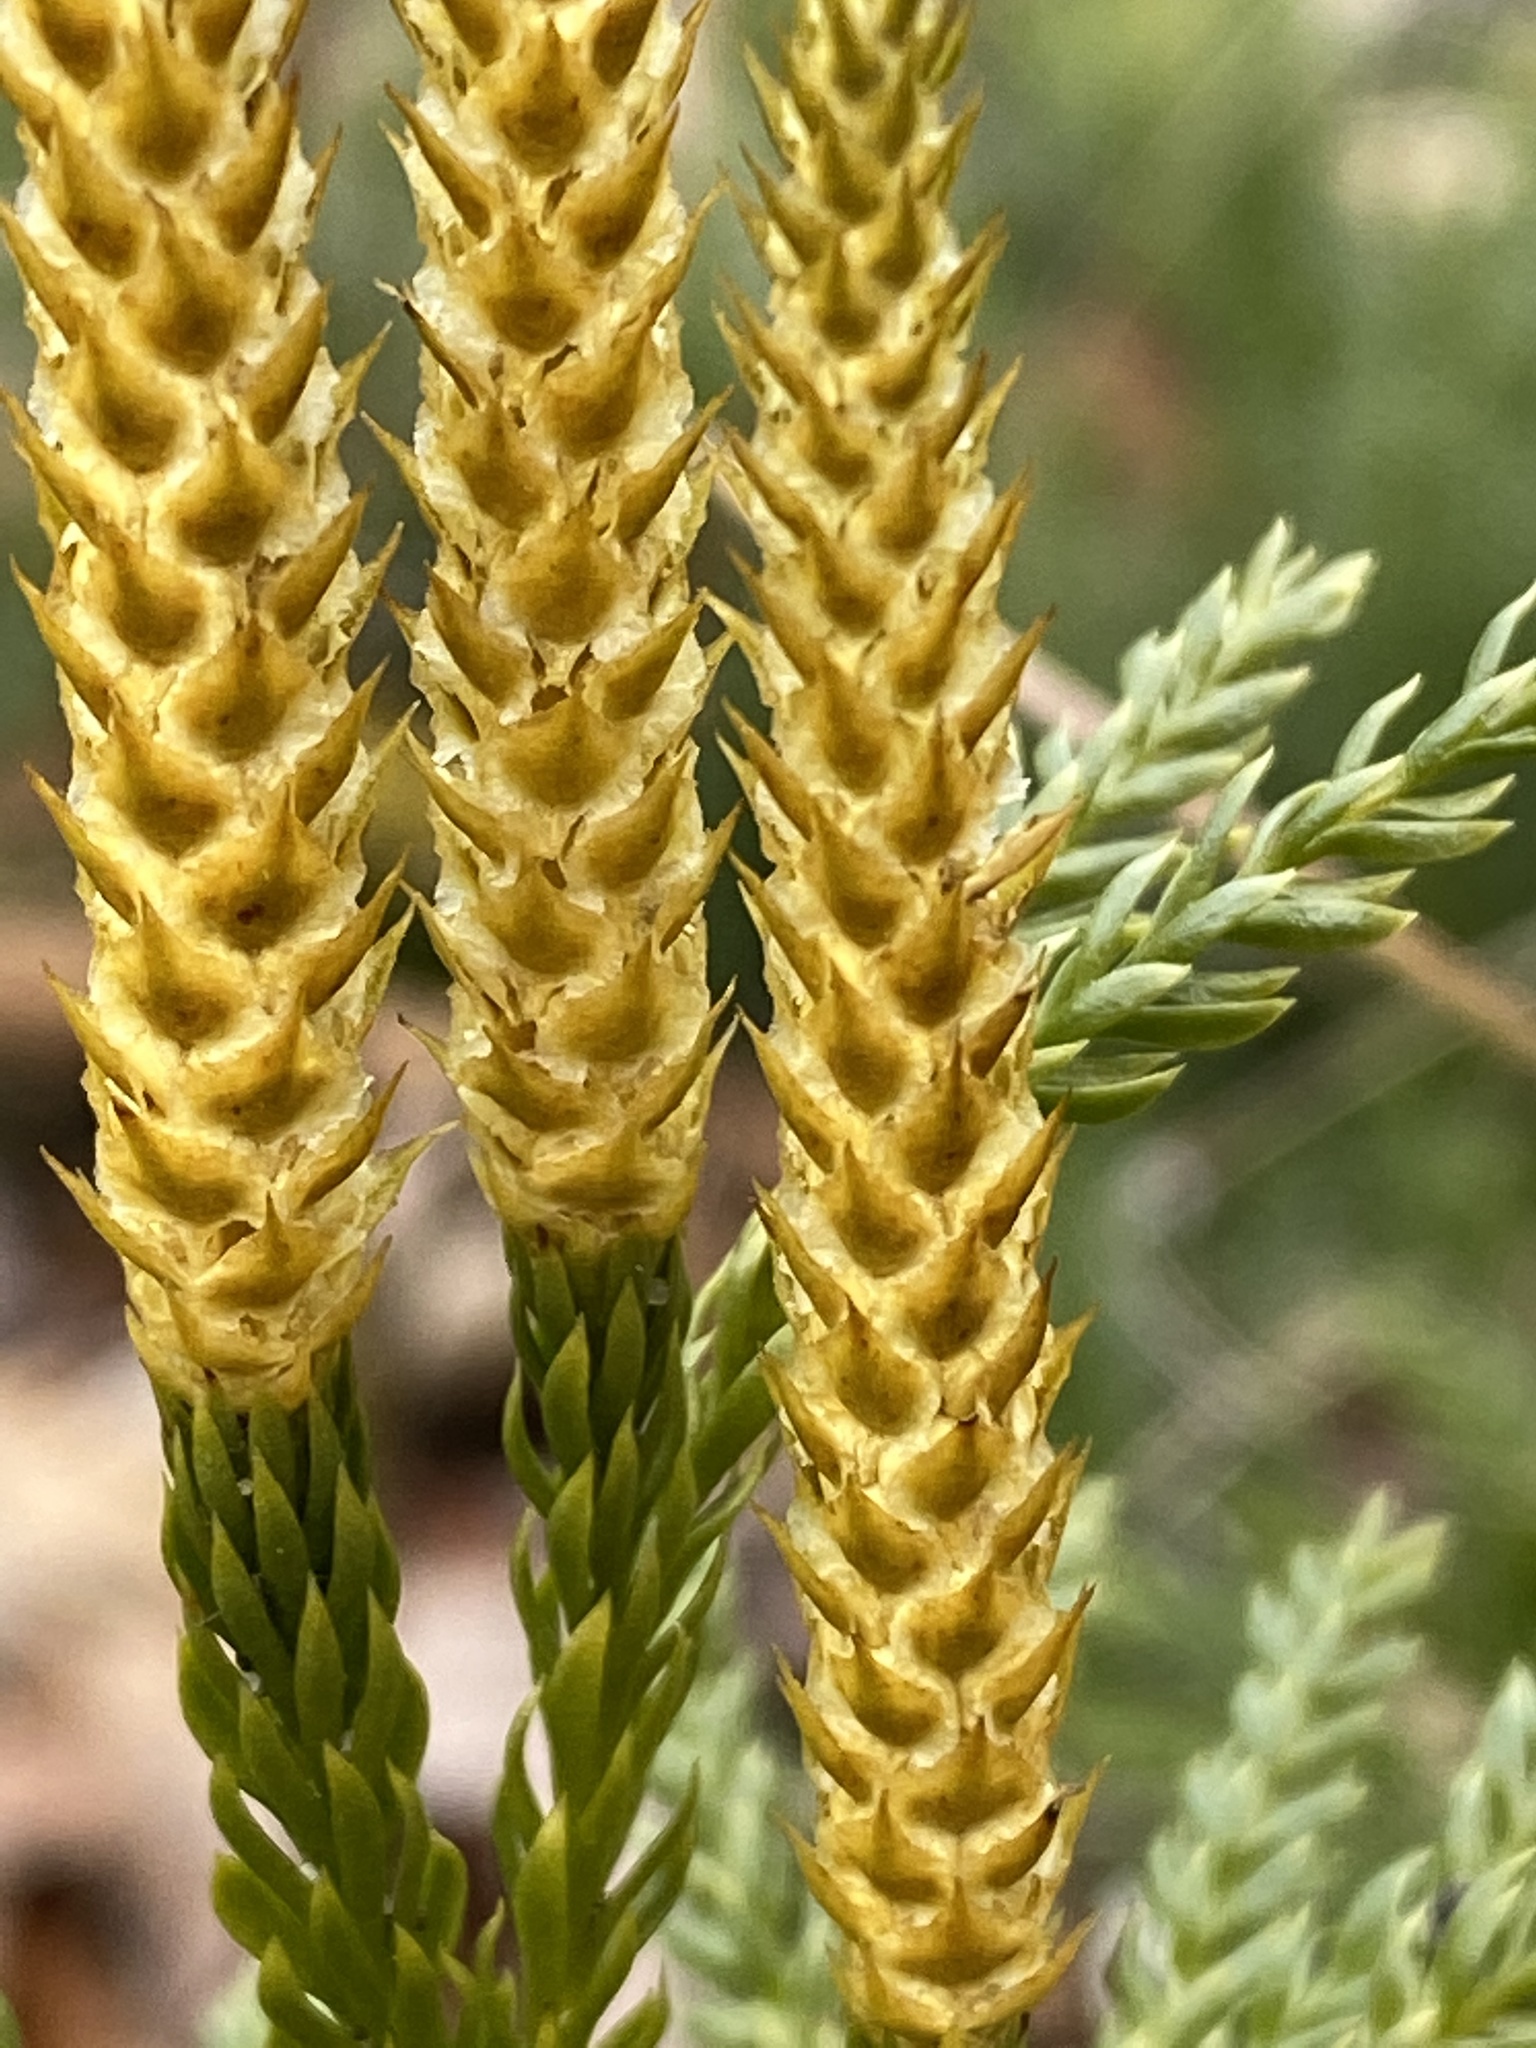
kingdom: Plantae
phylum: Tracheophyta
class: Lycopodiopsida
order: Lycopodiales
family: Lycopodiaceae
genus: Dendrolycopodium
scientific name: Dendrolycopodium hickeyi
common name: Hickey's clubmoss
